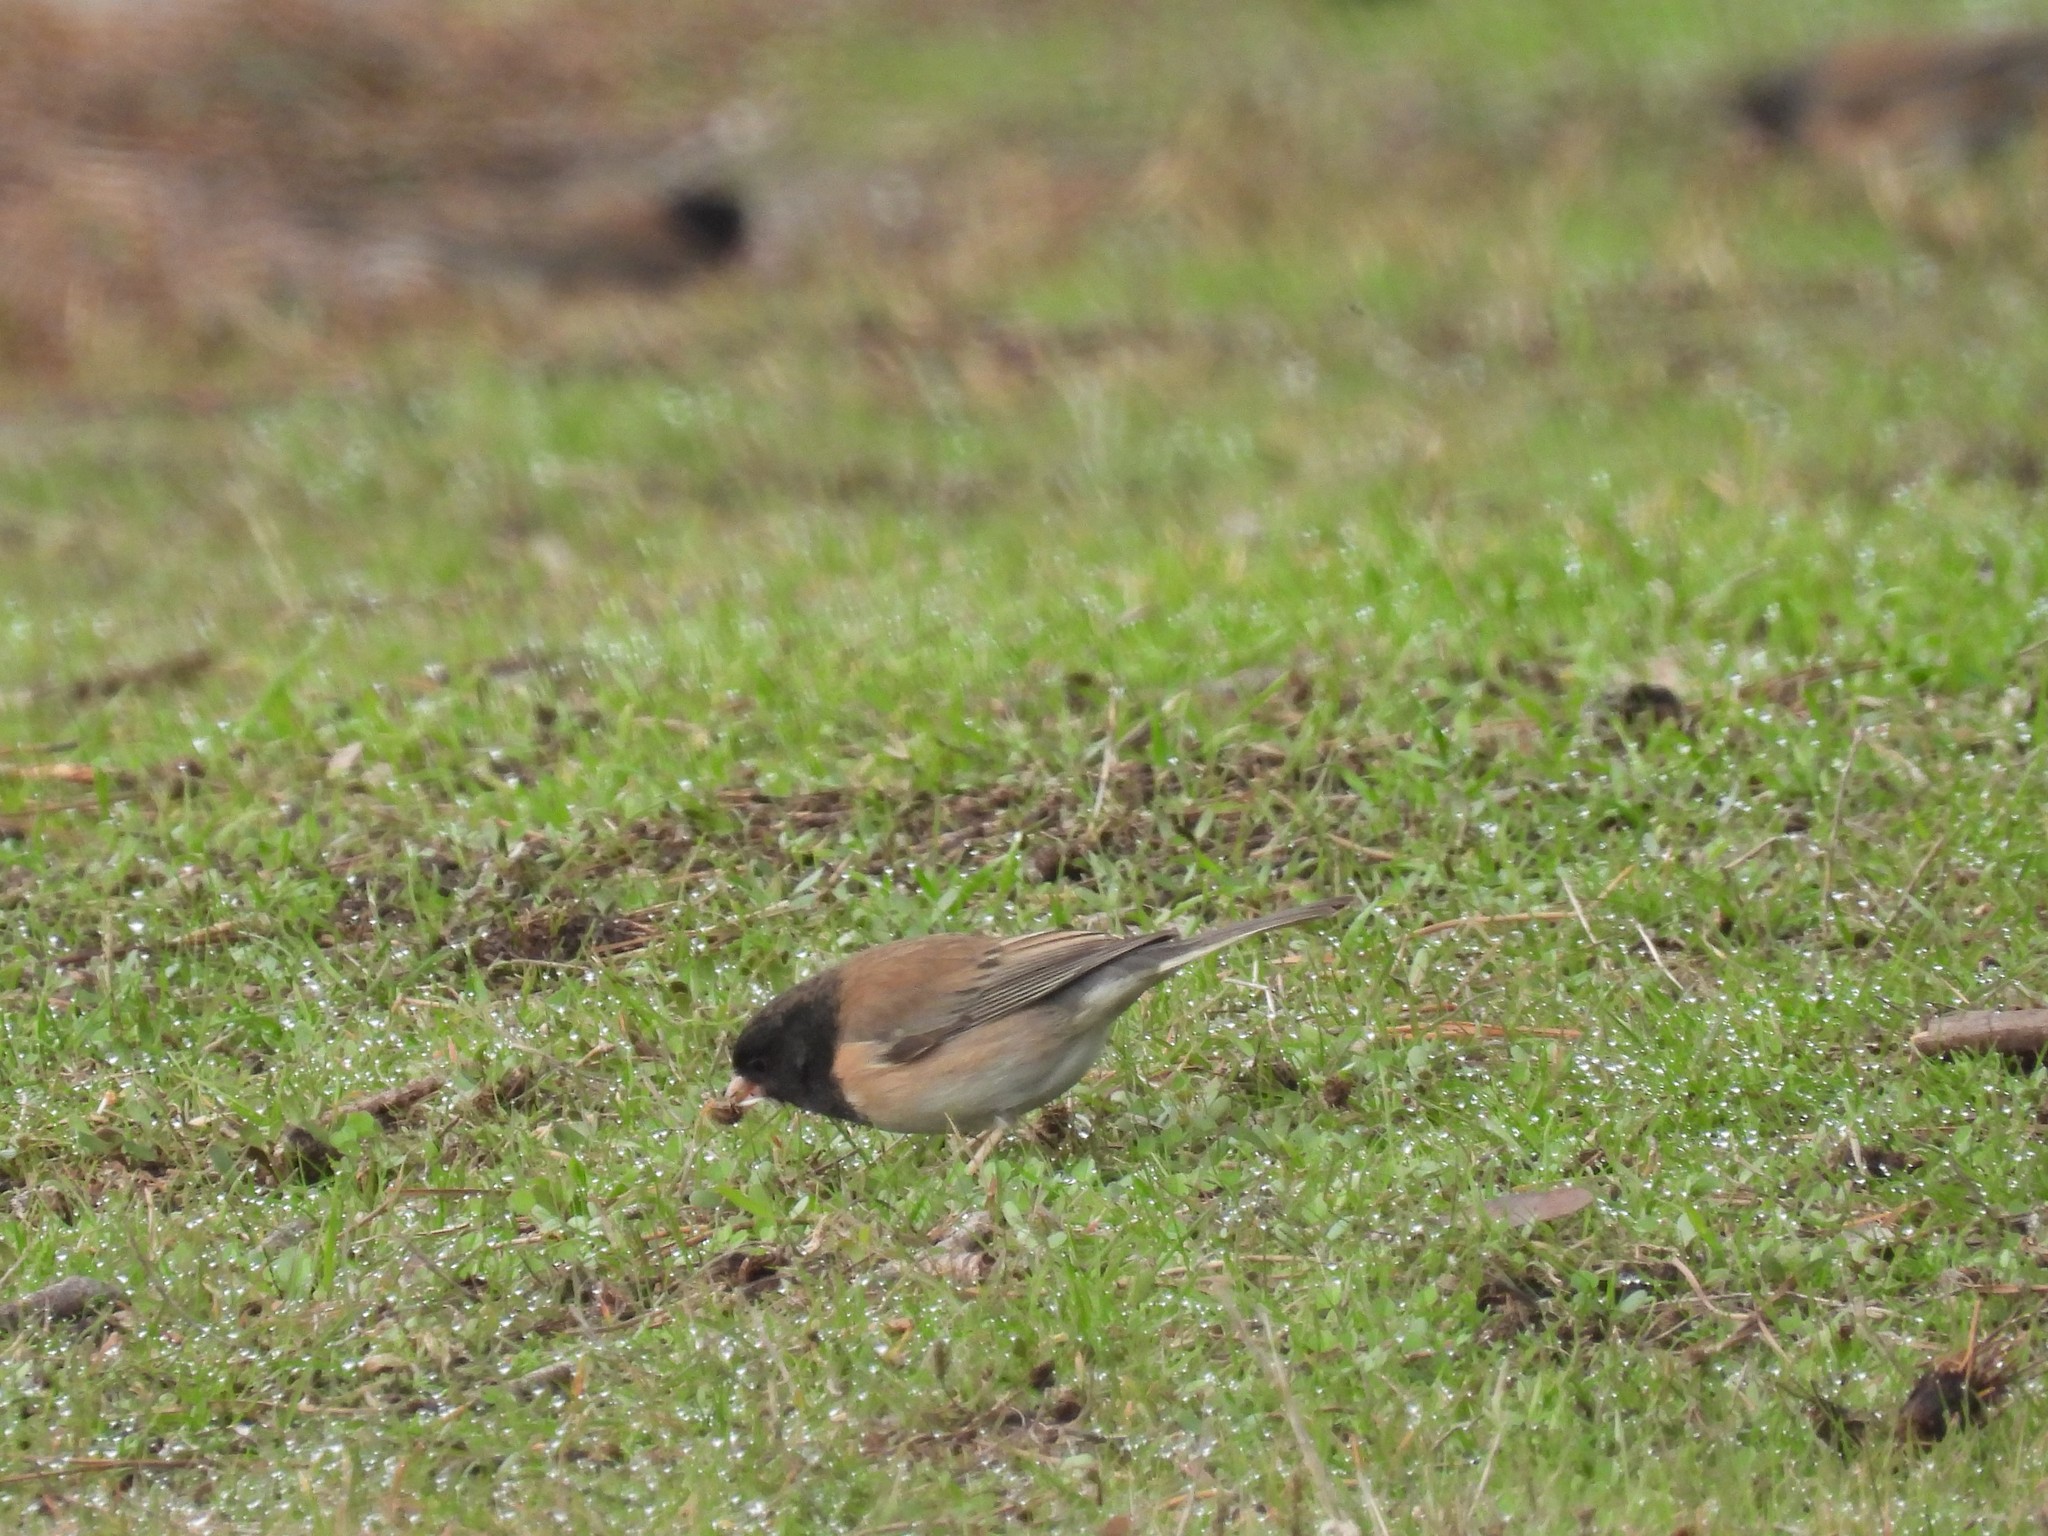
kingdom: Animalia
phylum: Chordata
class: Aves
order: Passeriformes
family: Passerellidae
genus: Junco
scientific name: Junco hyemalis
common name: Dark-eyed junco
